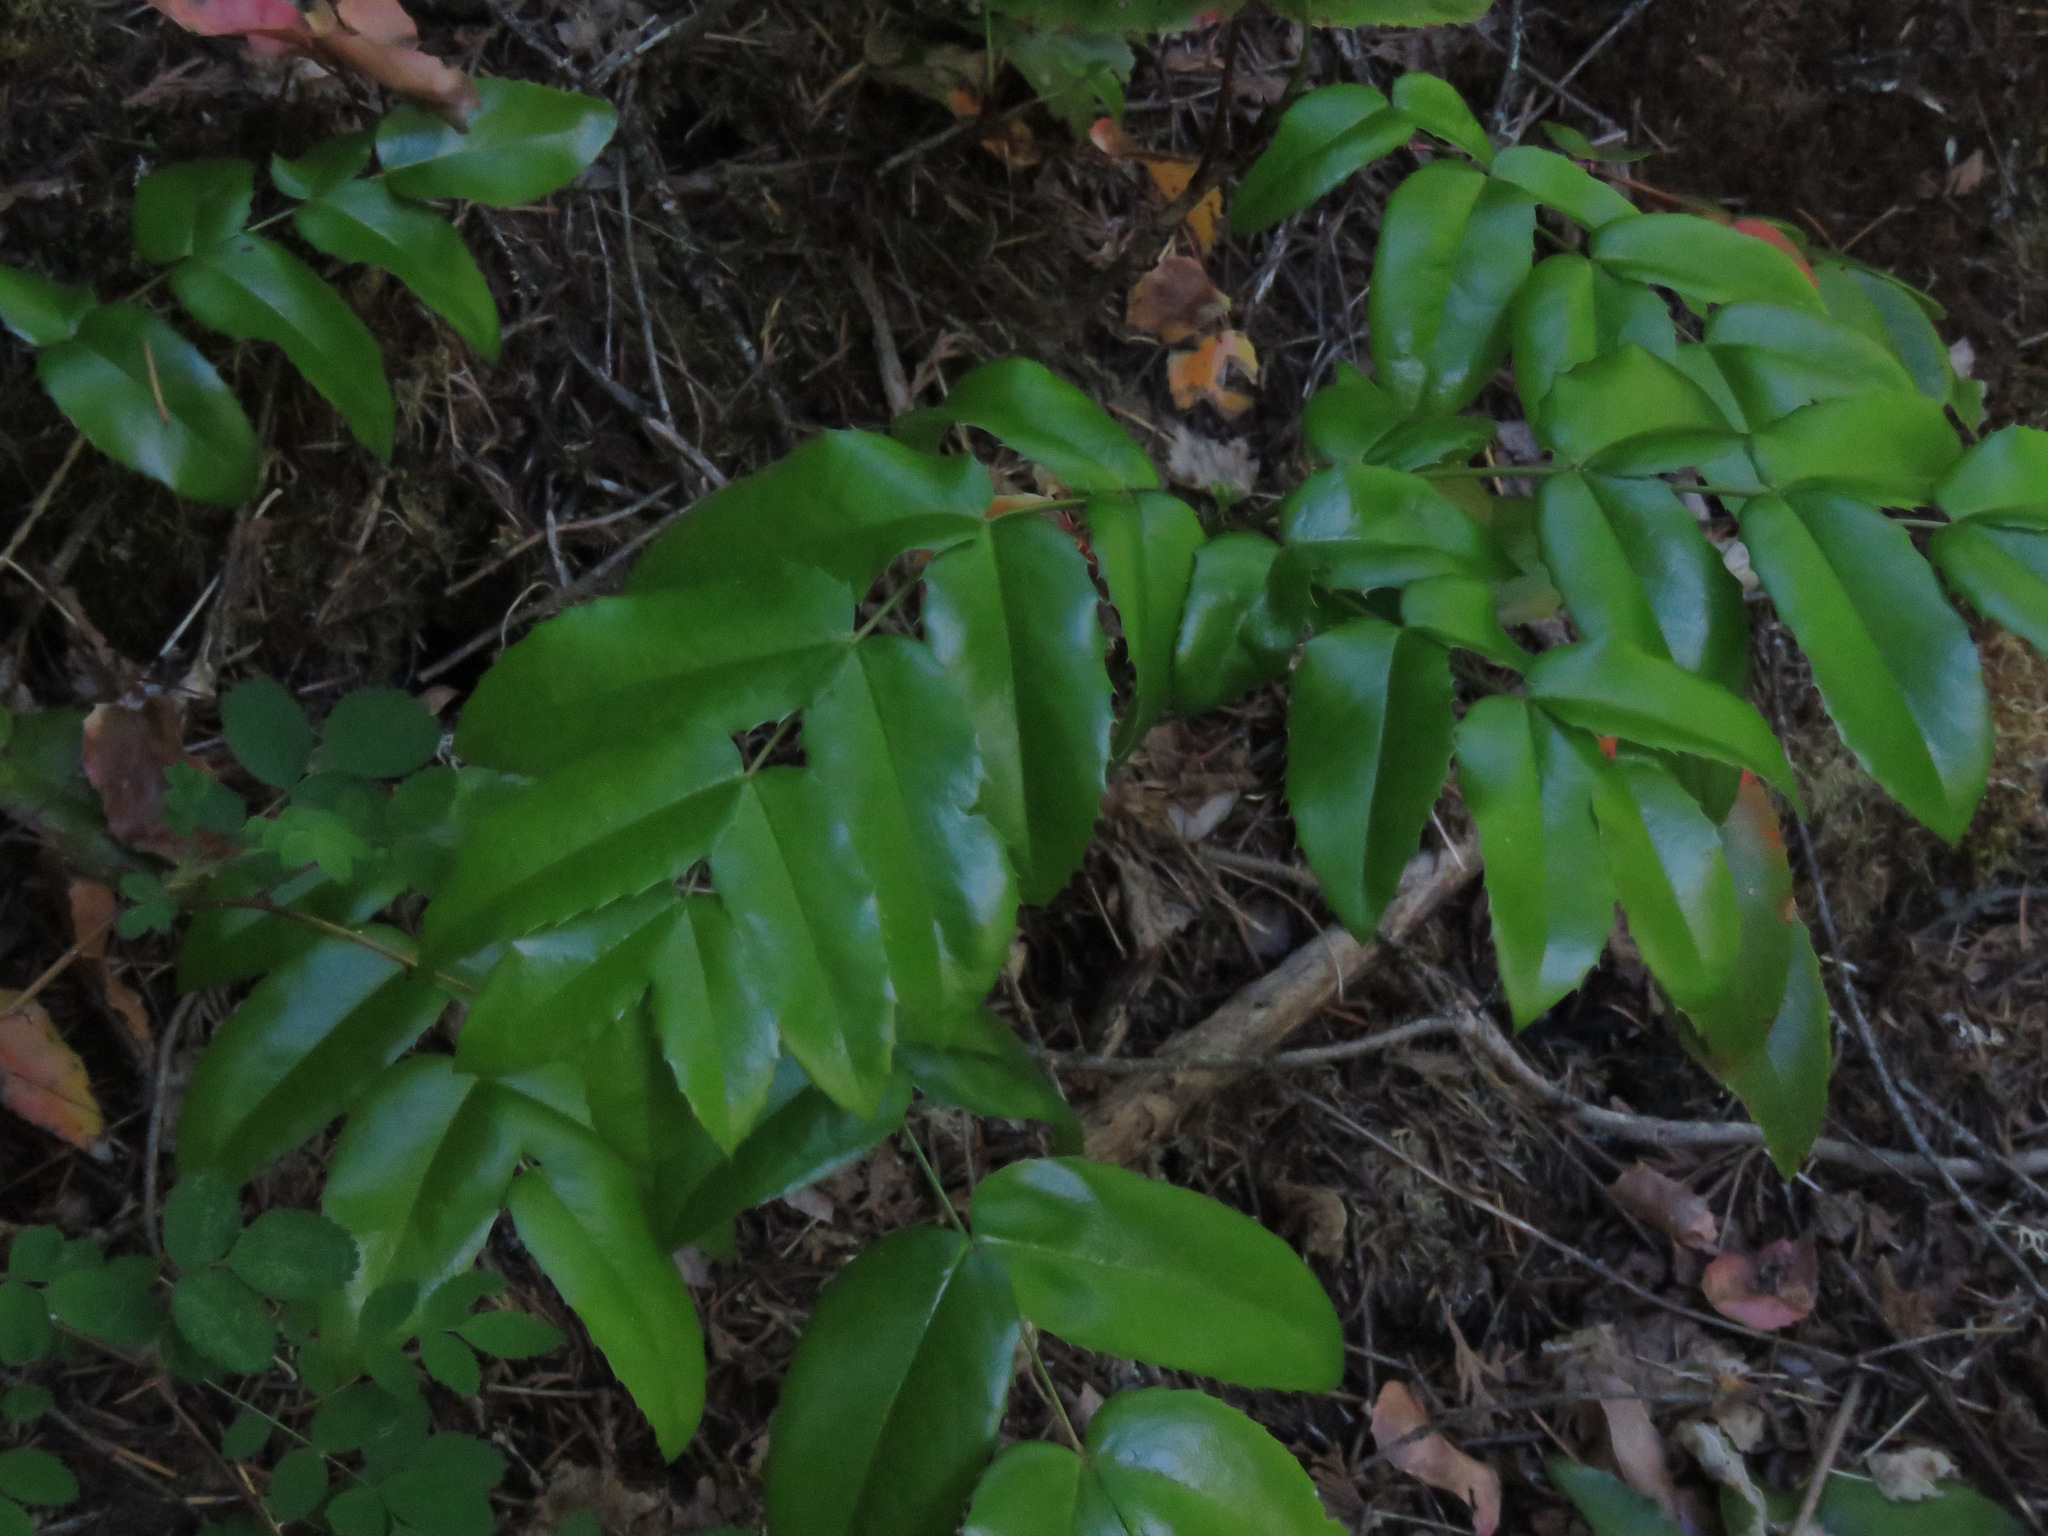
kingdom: Plantae
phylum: Tracheophyta
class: Magnoliopsida
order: Ranunculales
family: Berberidaceae
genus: Mahonia
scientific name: Mahonia aquifolium
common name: Oregon-grape
